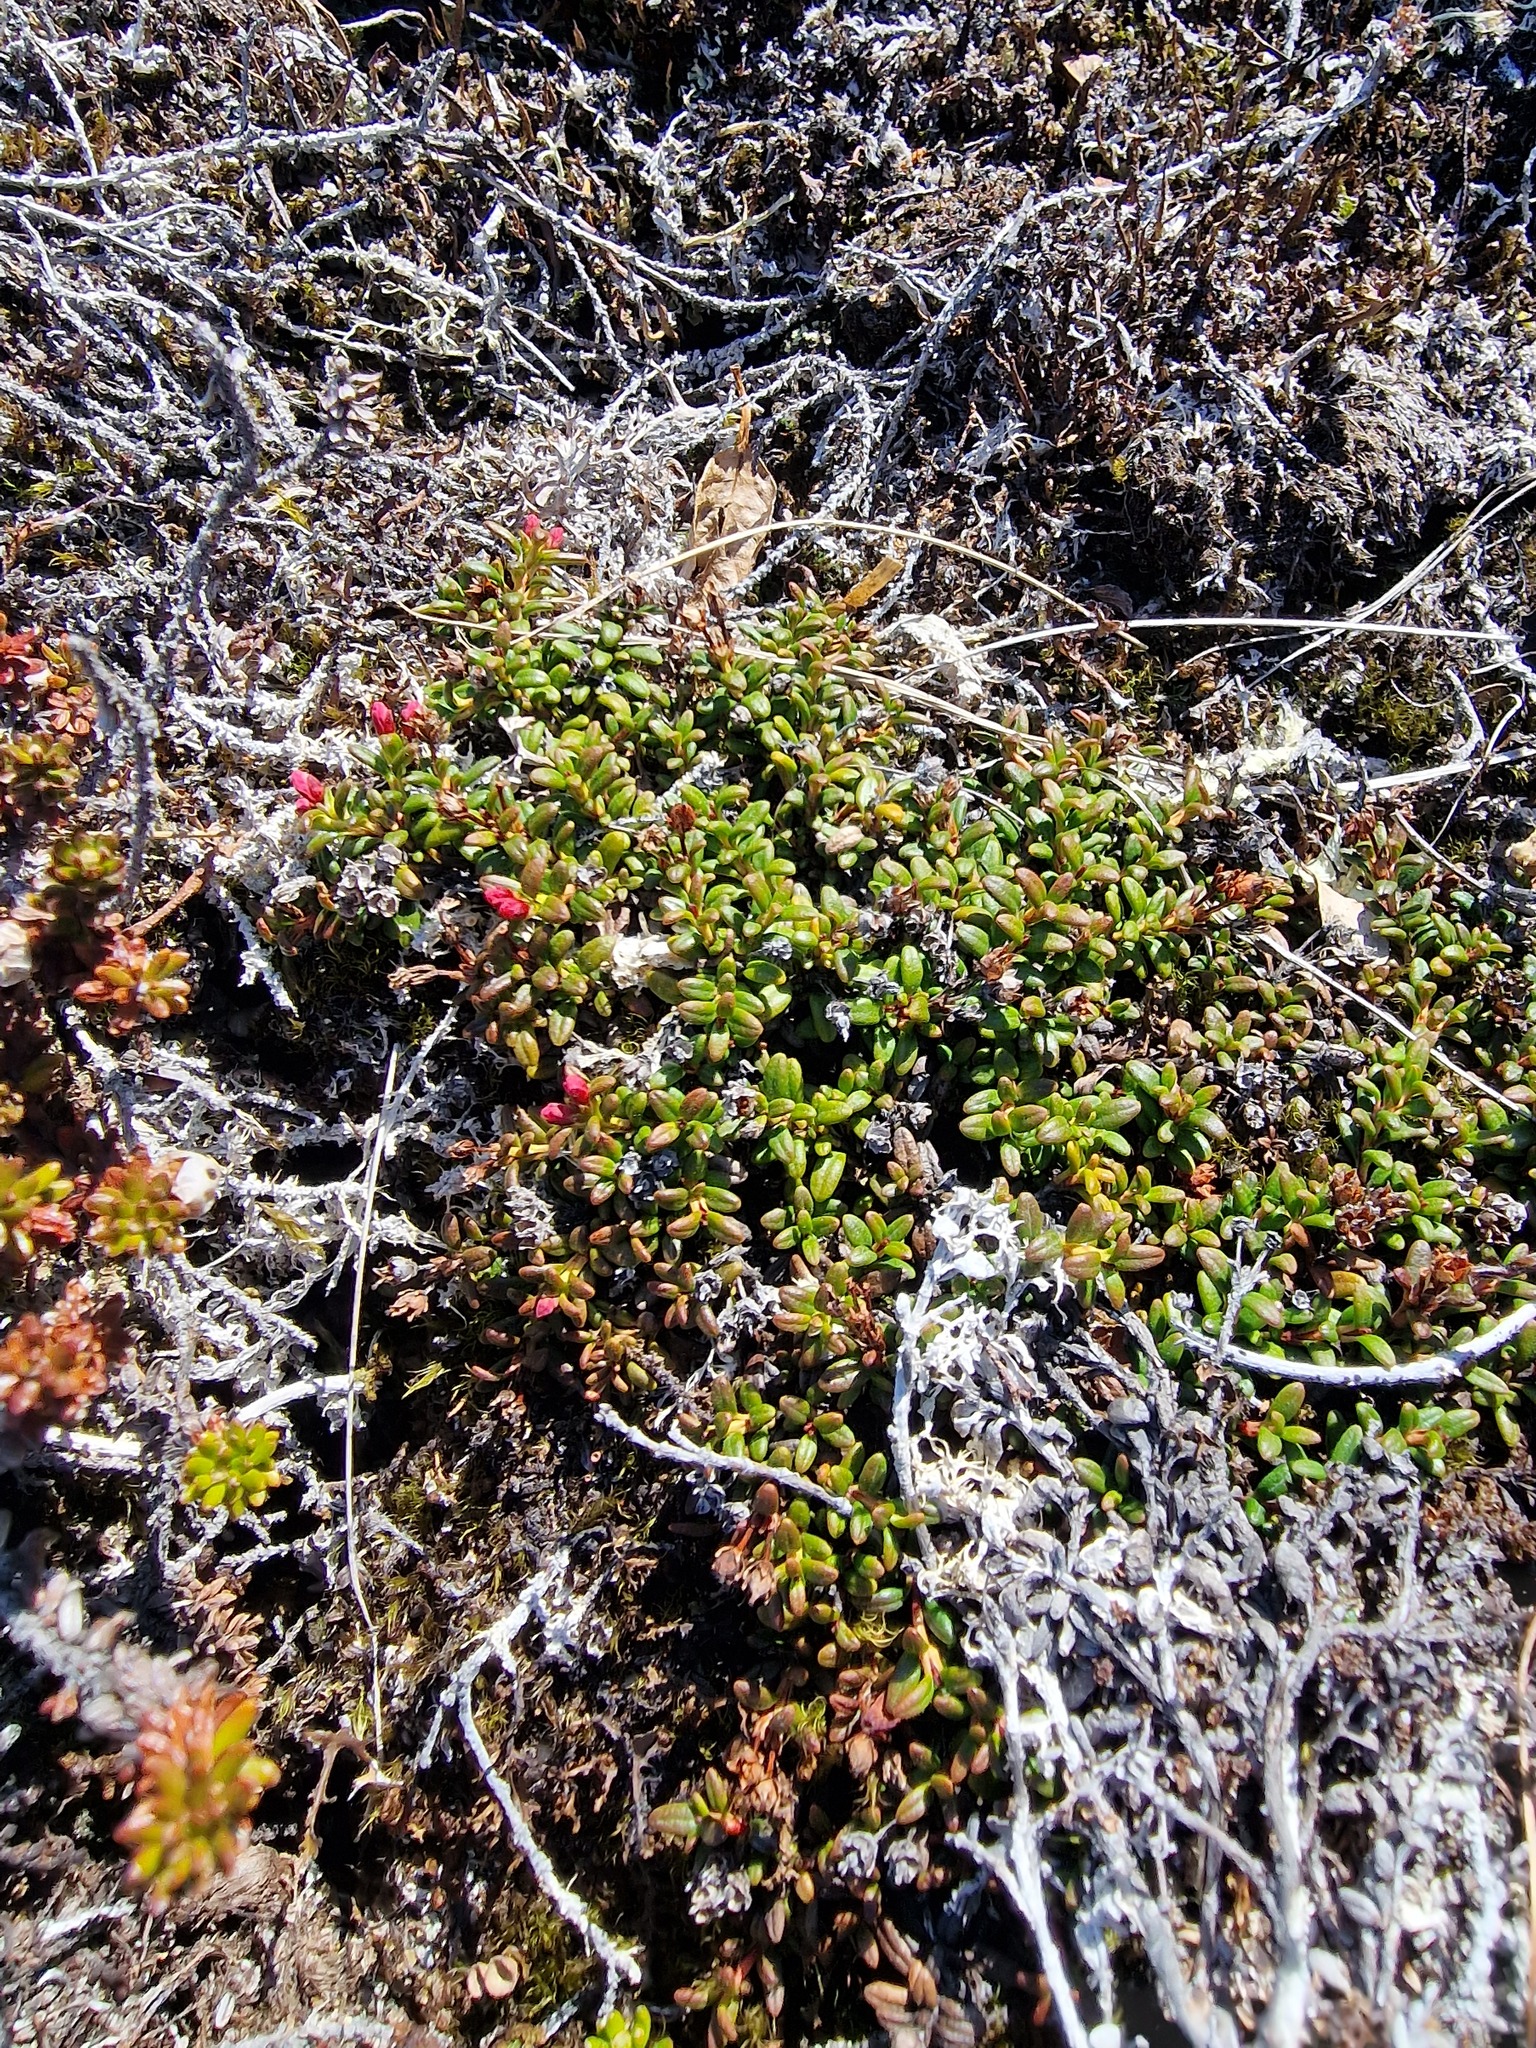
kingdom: Plantae
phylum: Tracheophyta
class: Magnoliopsida
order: Ericales
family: Ericaceae
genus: Kalmia
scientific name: Kalmia procumbens
